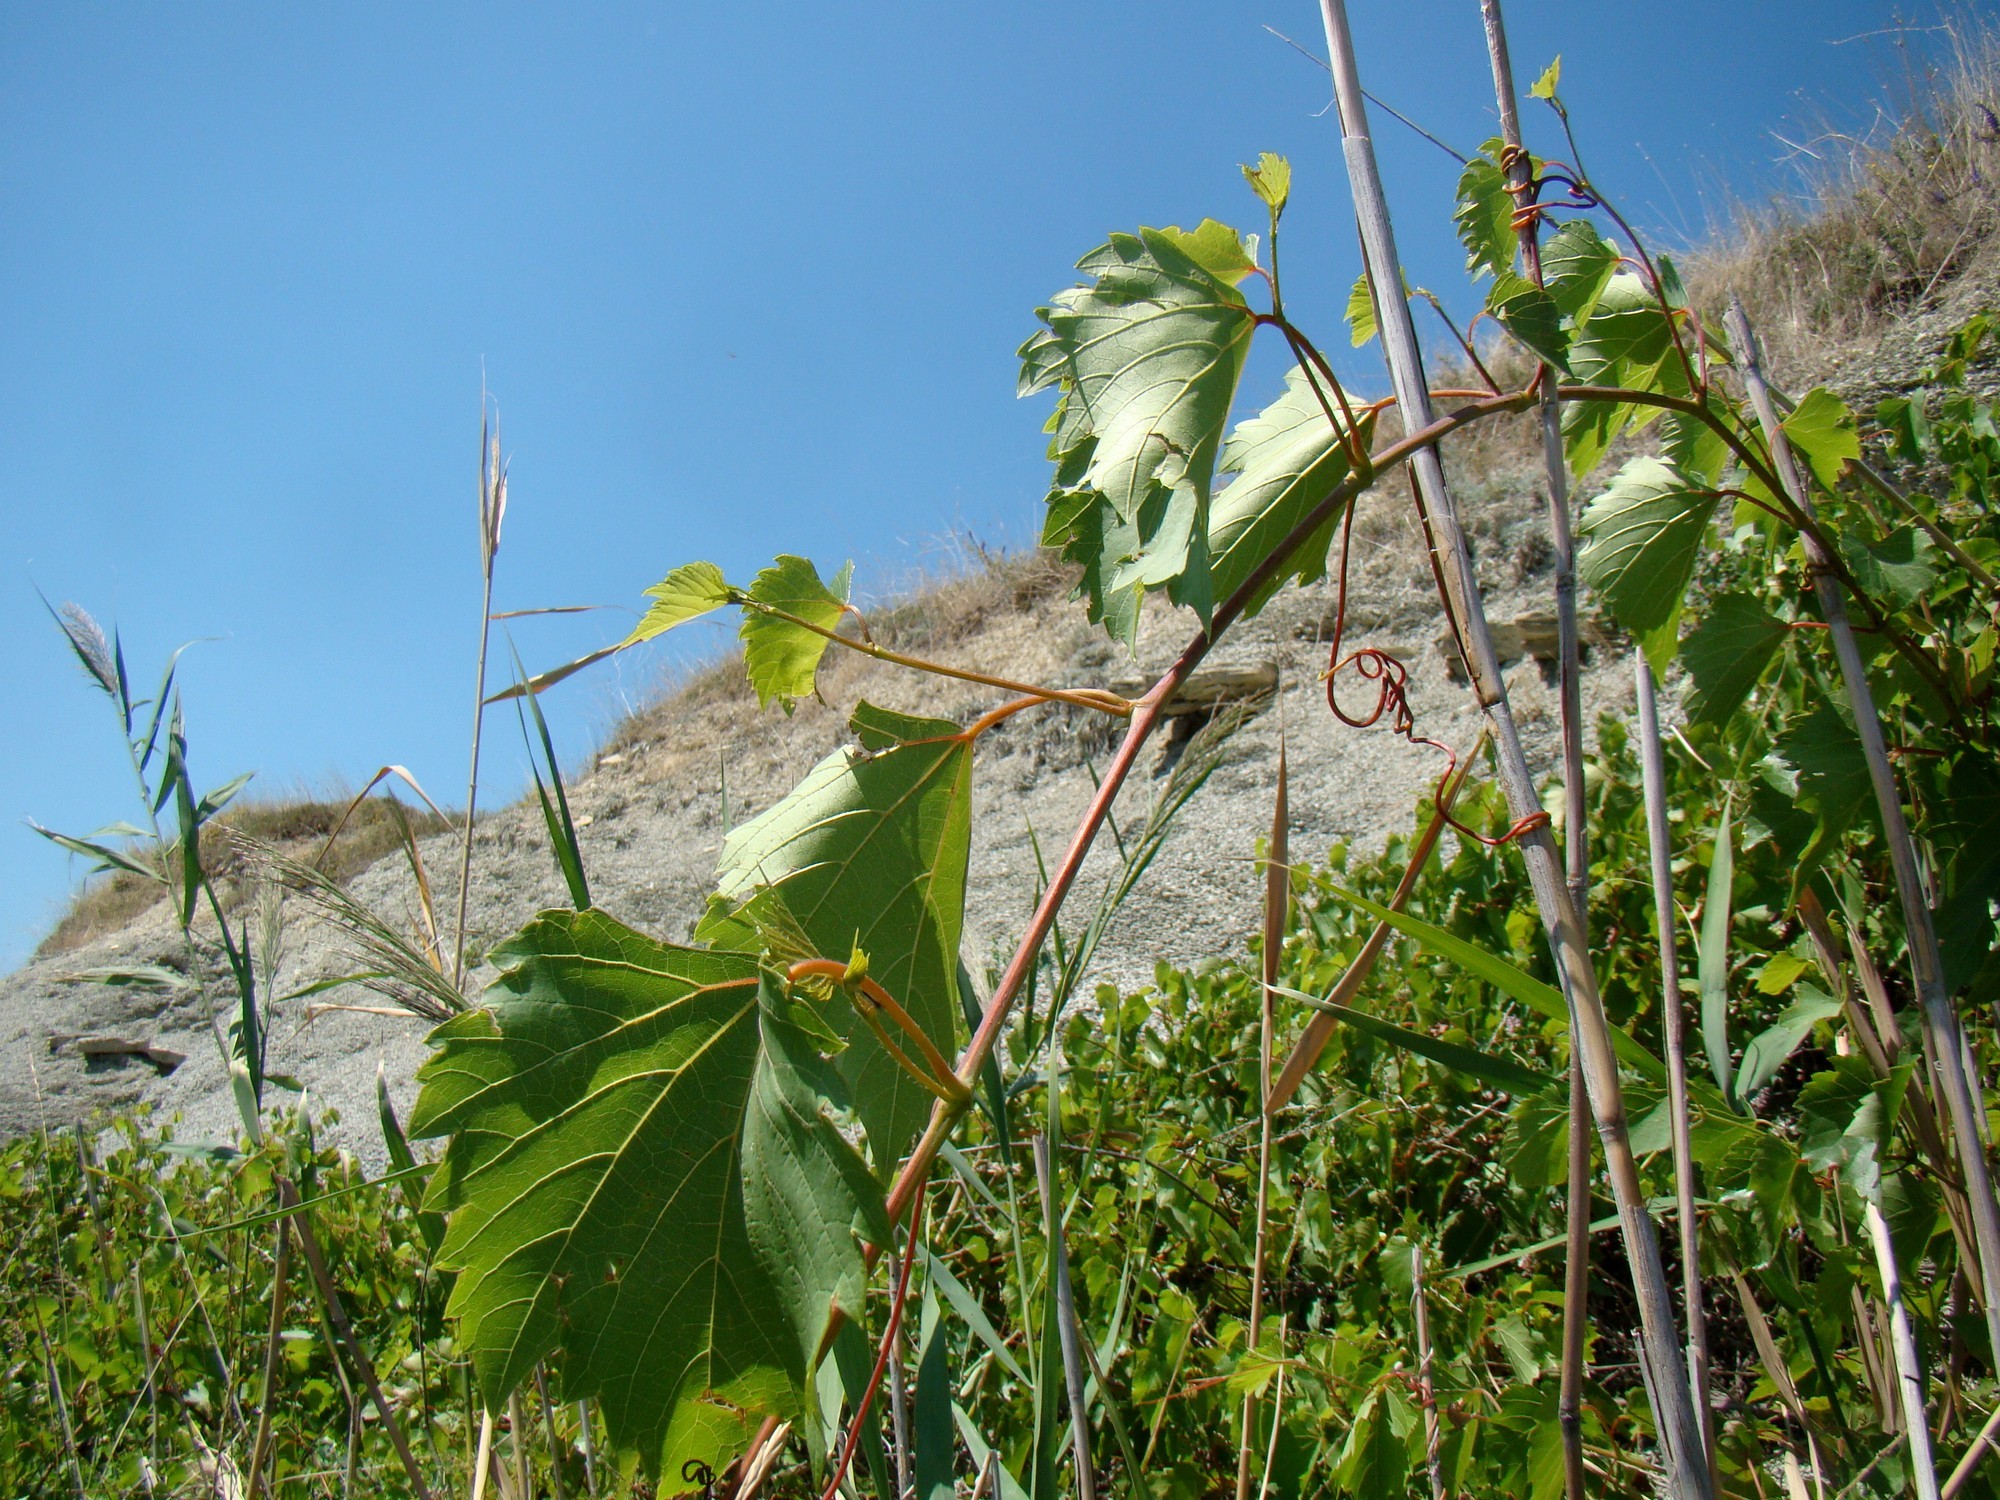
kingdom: Plantae
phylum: Tracheophyta
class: Magnoliopsida
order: Vitales
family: Vitaceae
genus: Vitis
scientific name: Vitis vinifera
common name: Grape-vine
